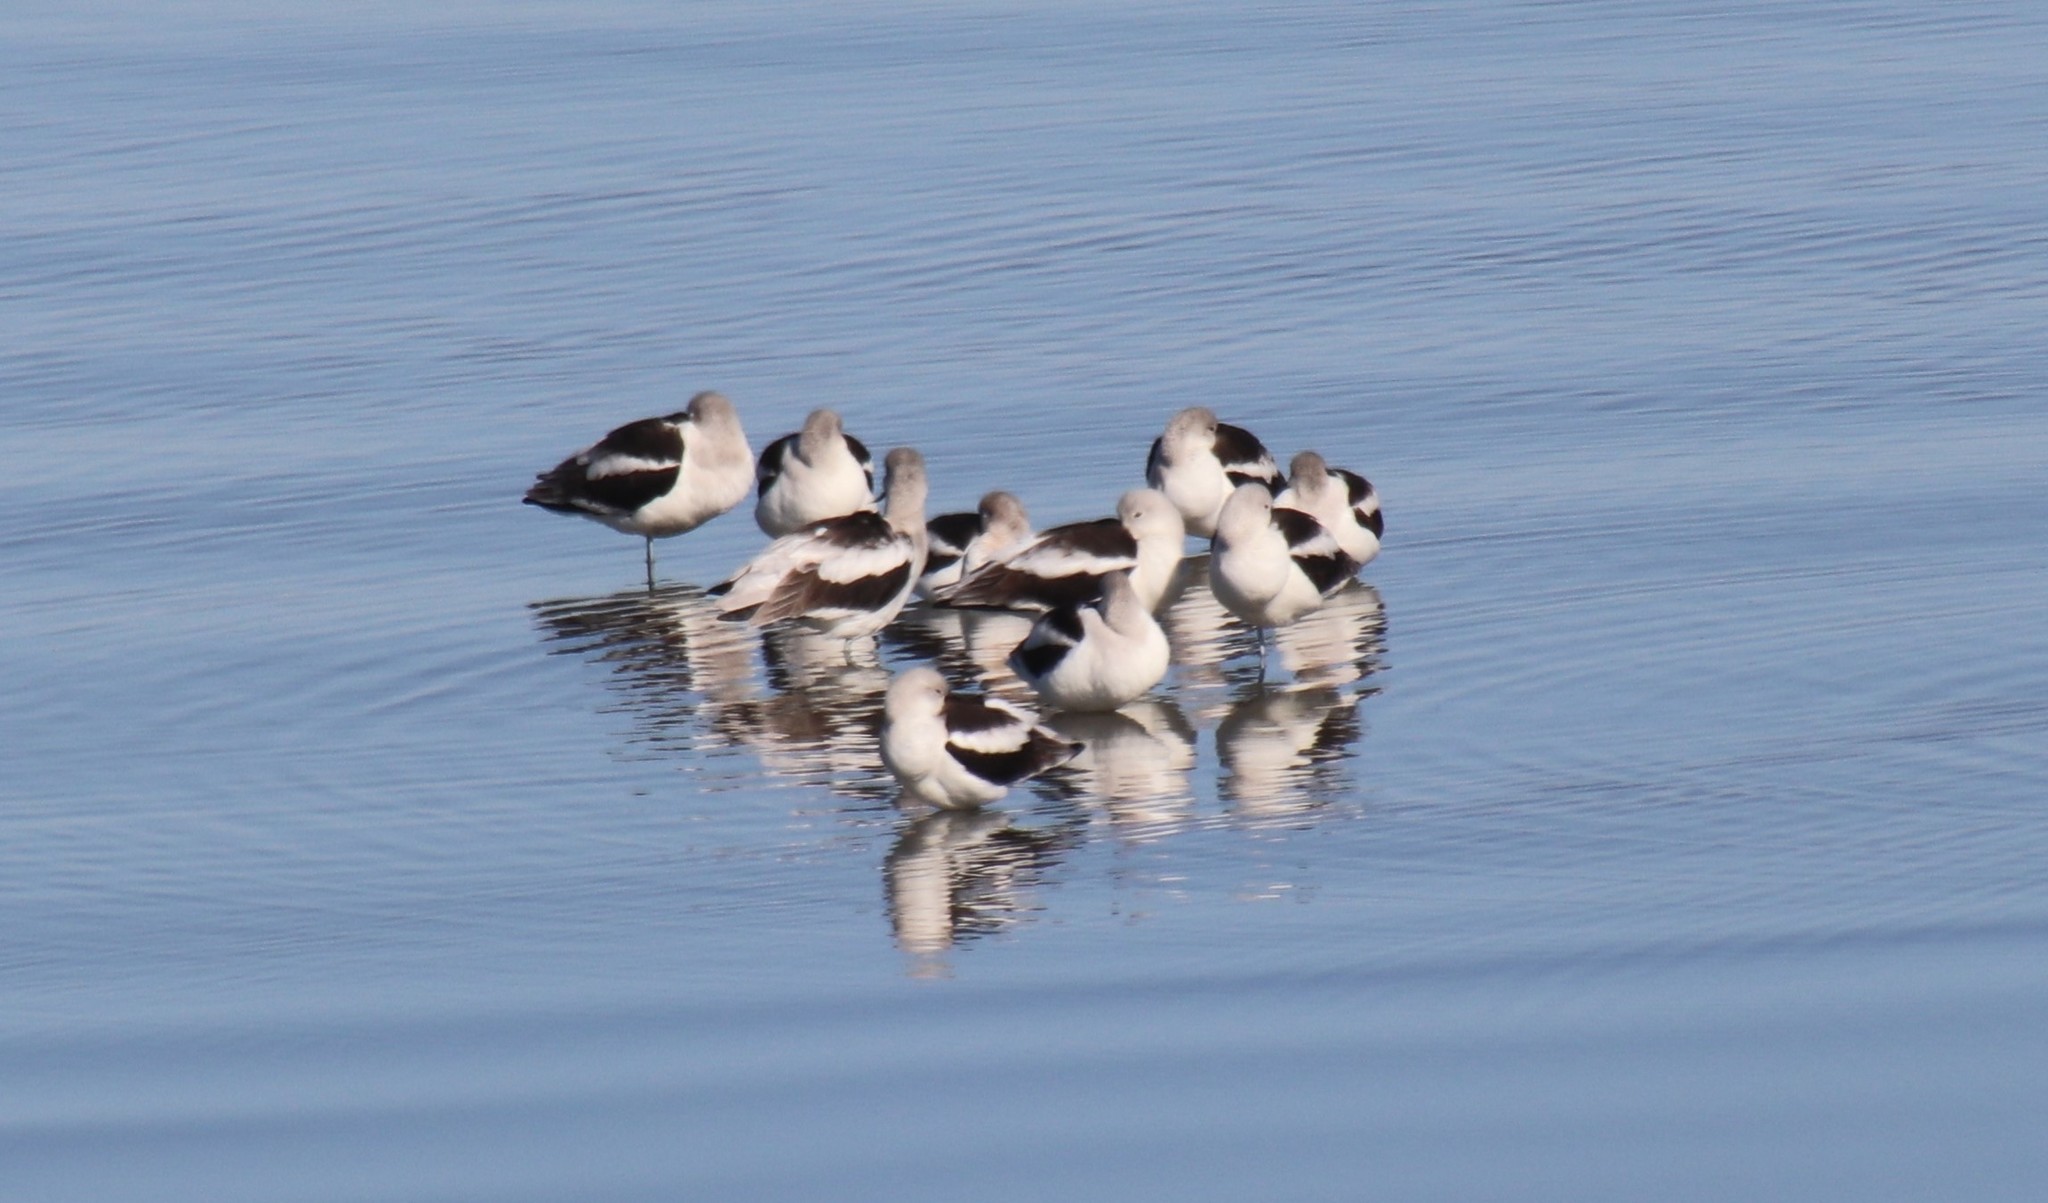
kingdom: Animalia
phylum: Chordata
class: Aves
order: Charadriiformes
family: Recurvirostridae
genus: Recurvirostra
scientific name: Recurvirostra americana
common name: American avocet
